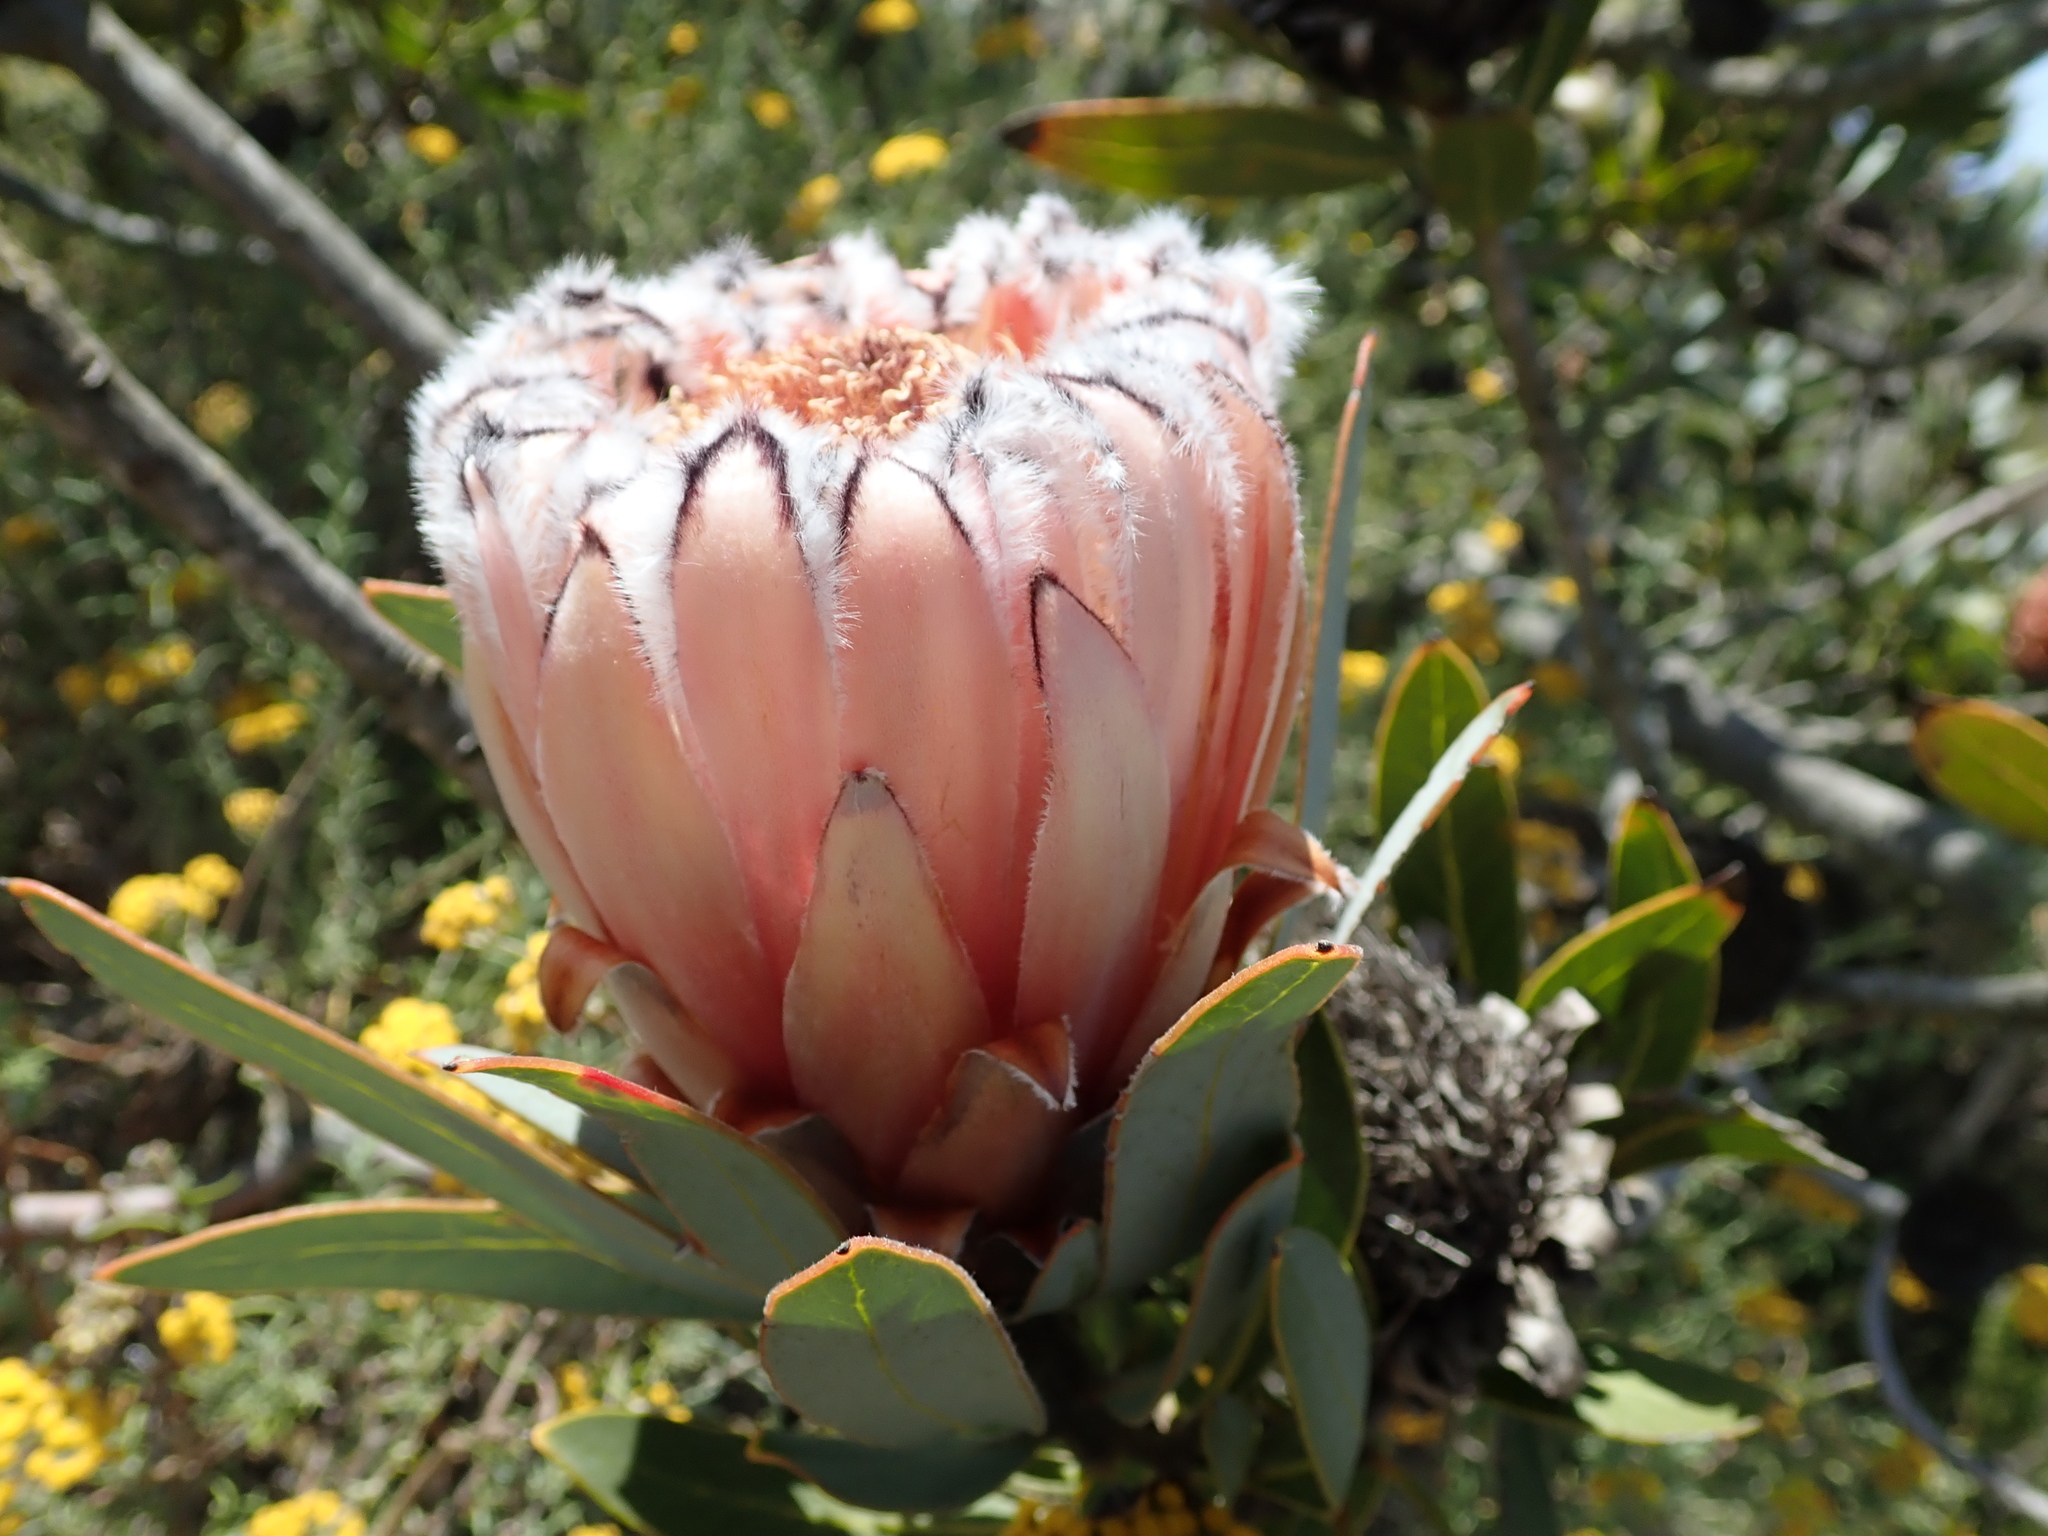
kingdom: Plantae
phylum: Tracheophyta
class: Magnoliopsida
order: Proteales
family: Proteaceae
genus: Protea
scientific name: Protea laurifolia
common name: Grey-leaf sugarbsh
